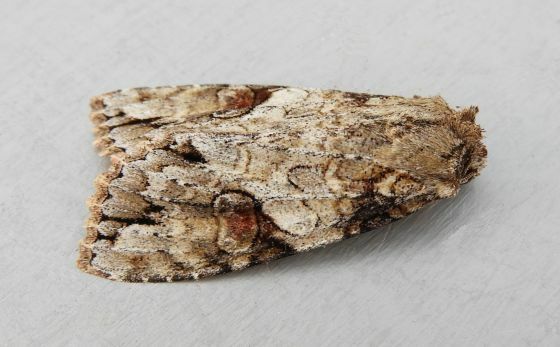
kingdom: Animalia
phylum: Arthropoda
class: Insecta
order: Lepidoptera
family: Noctuidae
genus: Achatia
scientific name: Achatia latex
